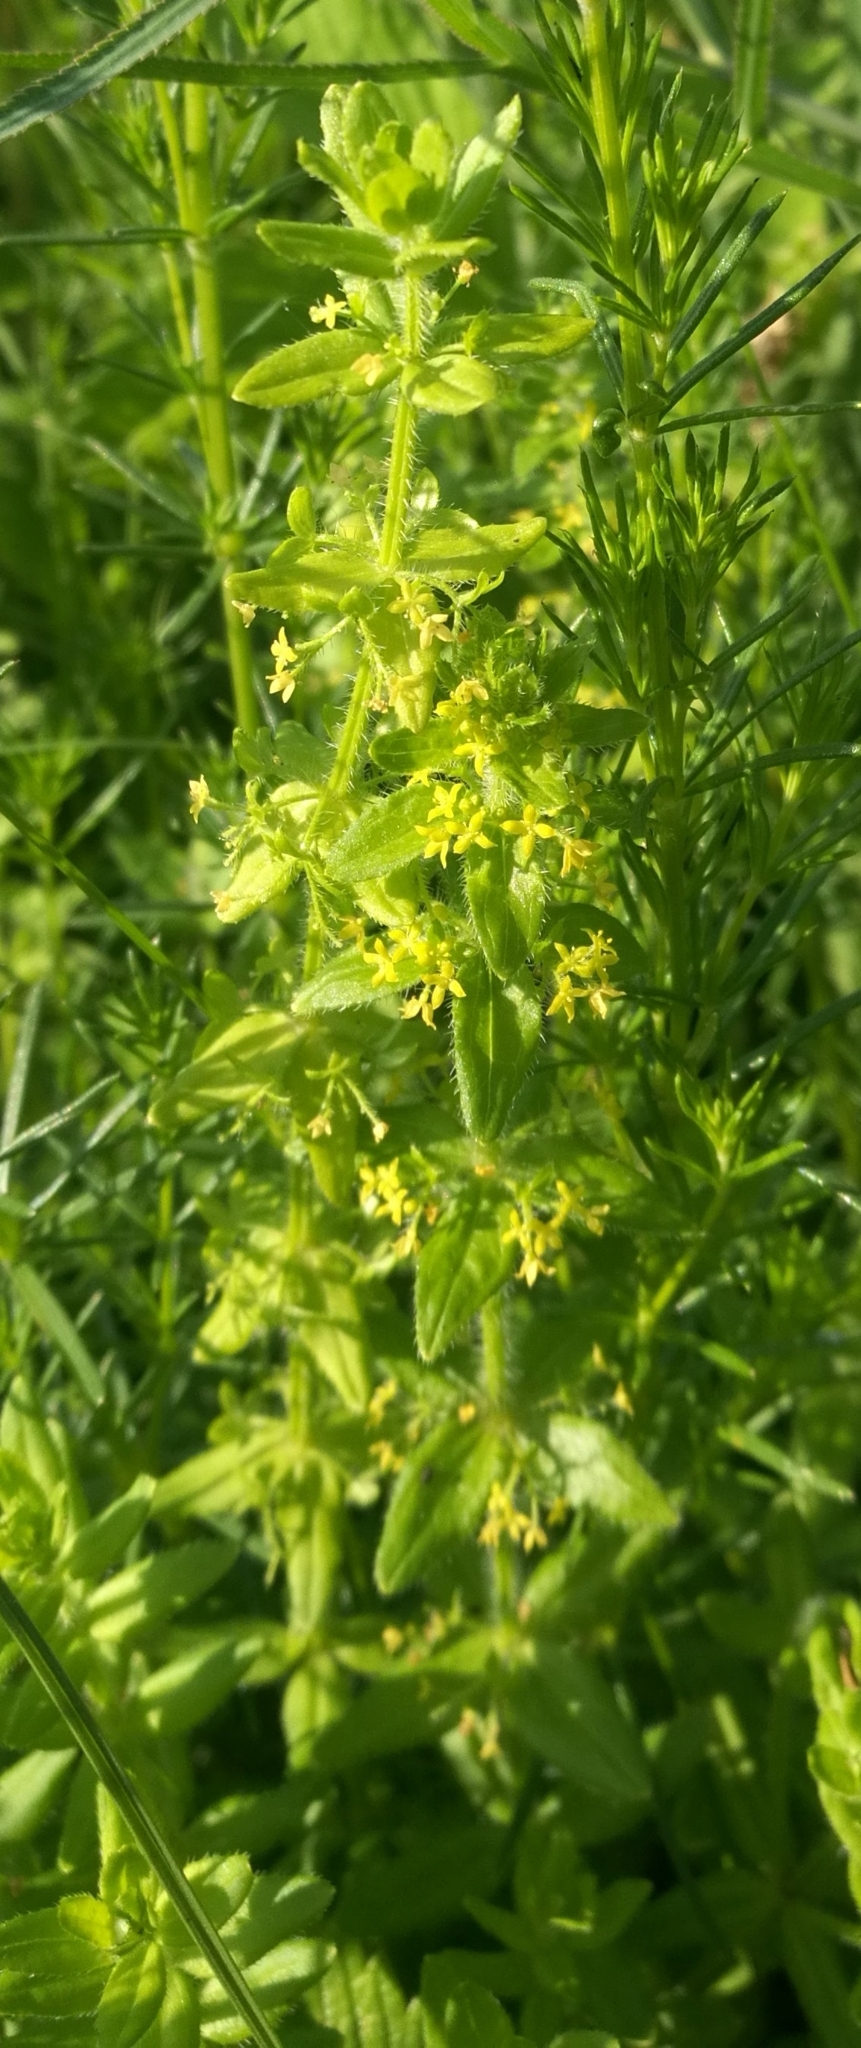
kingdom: Plantae
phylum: Tracheophyta
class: Magnoliopsida
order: Gentianales
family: Rubiaceae
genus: Cruciata
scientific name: Cruciata laevipes
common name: Crosswort
